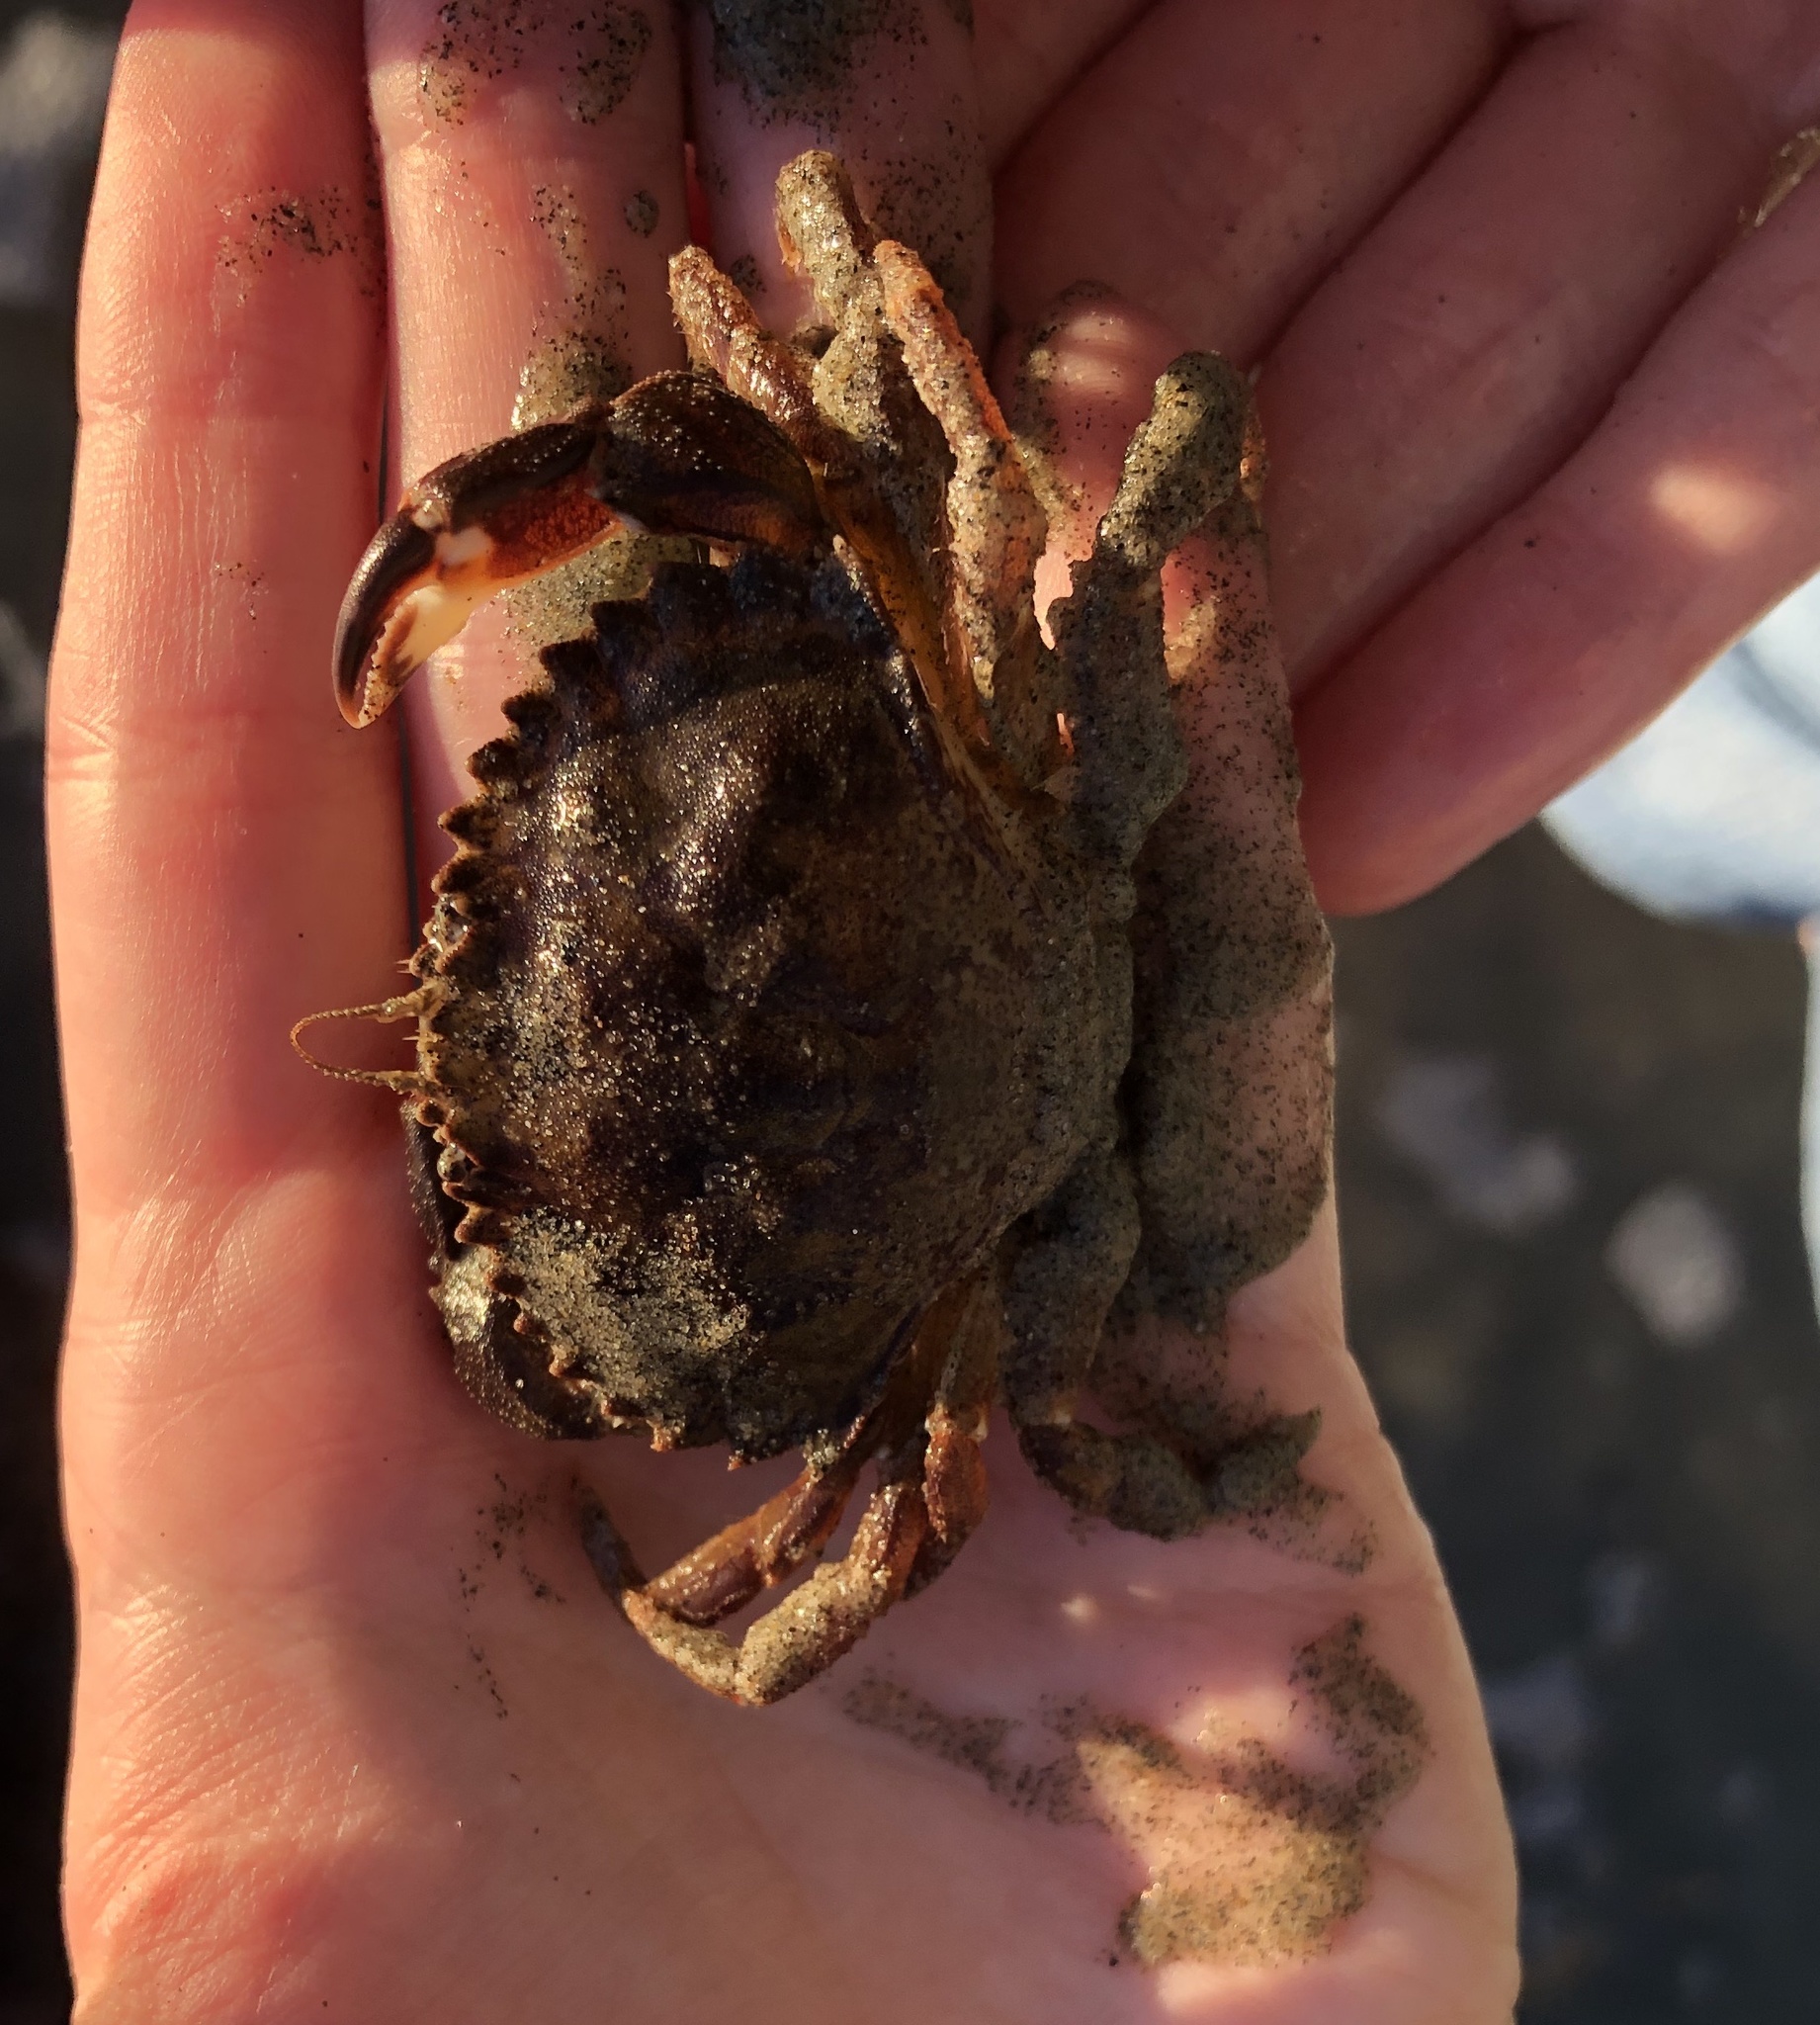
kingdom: Animalia
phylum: Arthropoda
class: Malacostraca
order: Decapoda
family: Cancridae
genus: Metacarcinus
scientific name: Metacarcinus anthonyi
